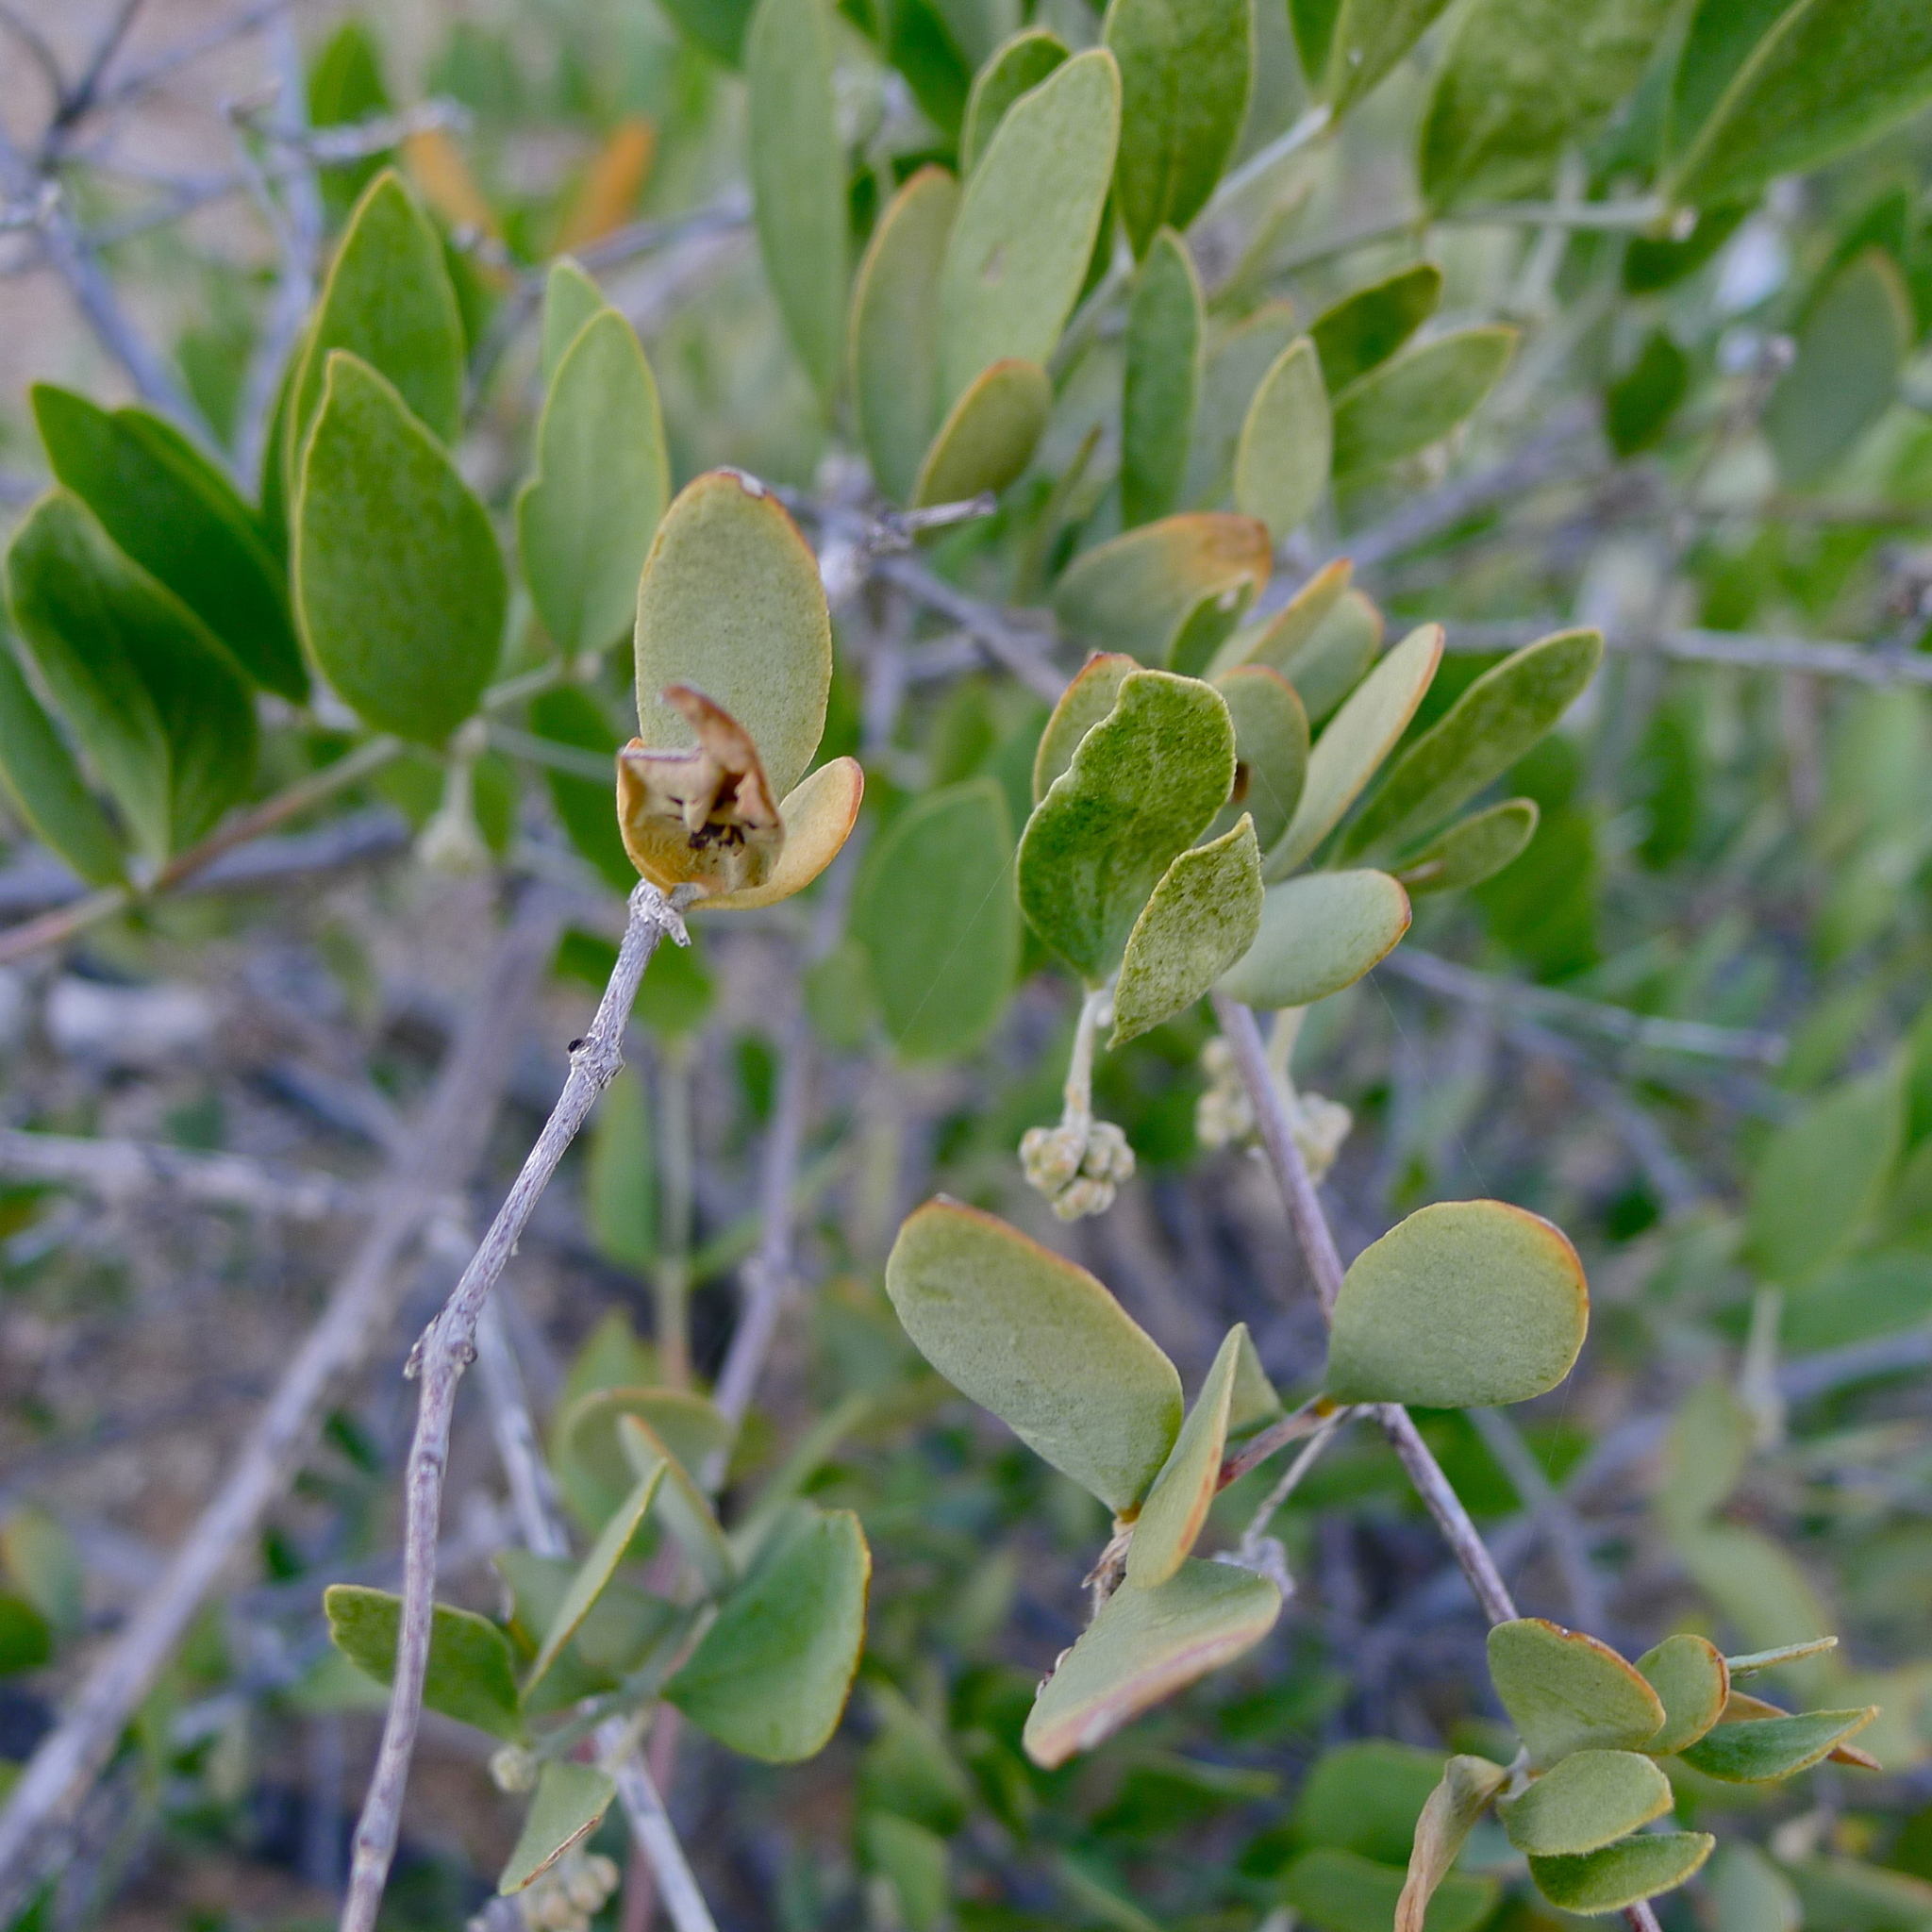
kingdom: Plantae
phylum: Tracheophyta
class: Magnoliopsida
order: Caryophyllales
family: Simmondsiaceae
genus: Simmondsia
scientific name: Simmondsia chinensis
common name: Jojoba
